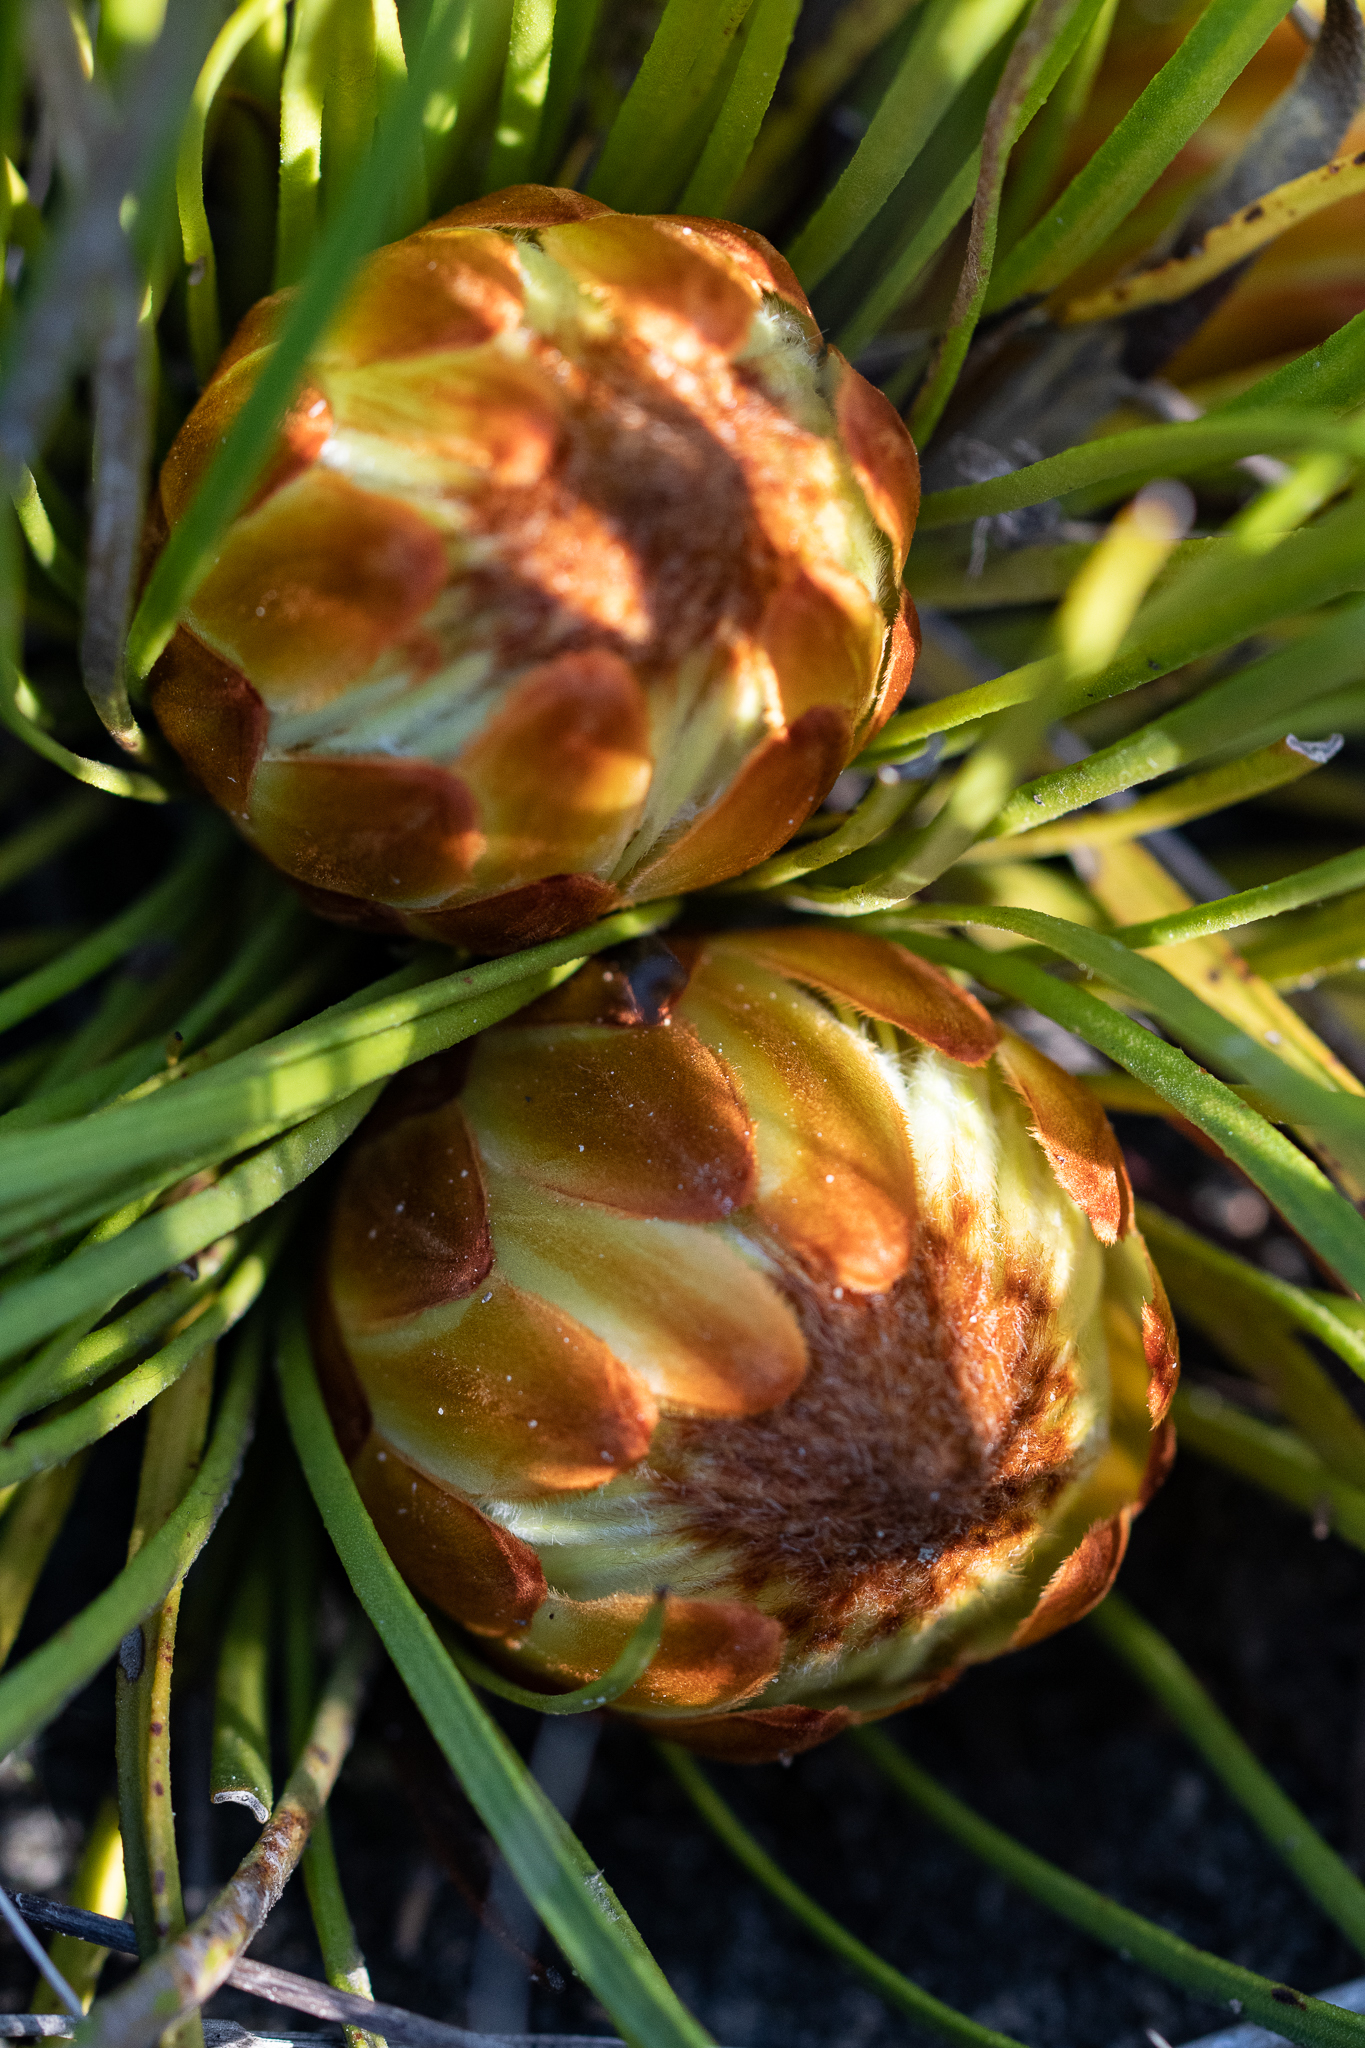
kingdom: Plantae
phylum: Tracheophyta
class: Magnoliopsida
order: Proteales
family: Proteaceae
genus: Protea
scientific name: Protea scabra
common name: Sandpaper-leaf sugarbush
